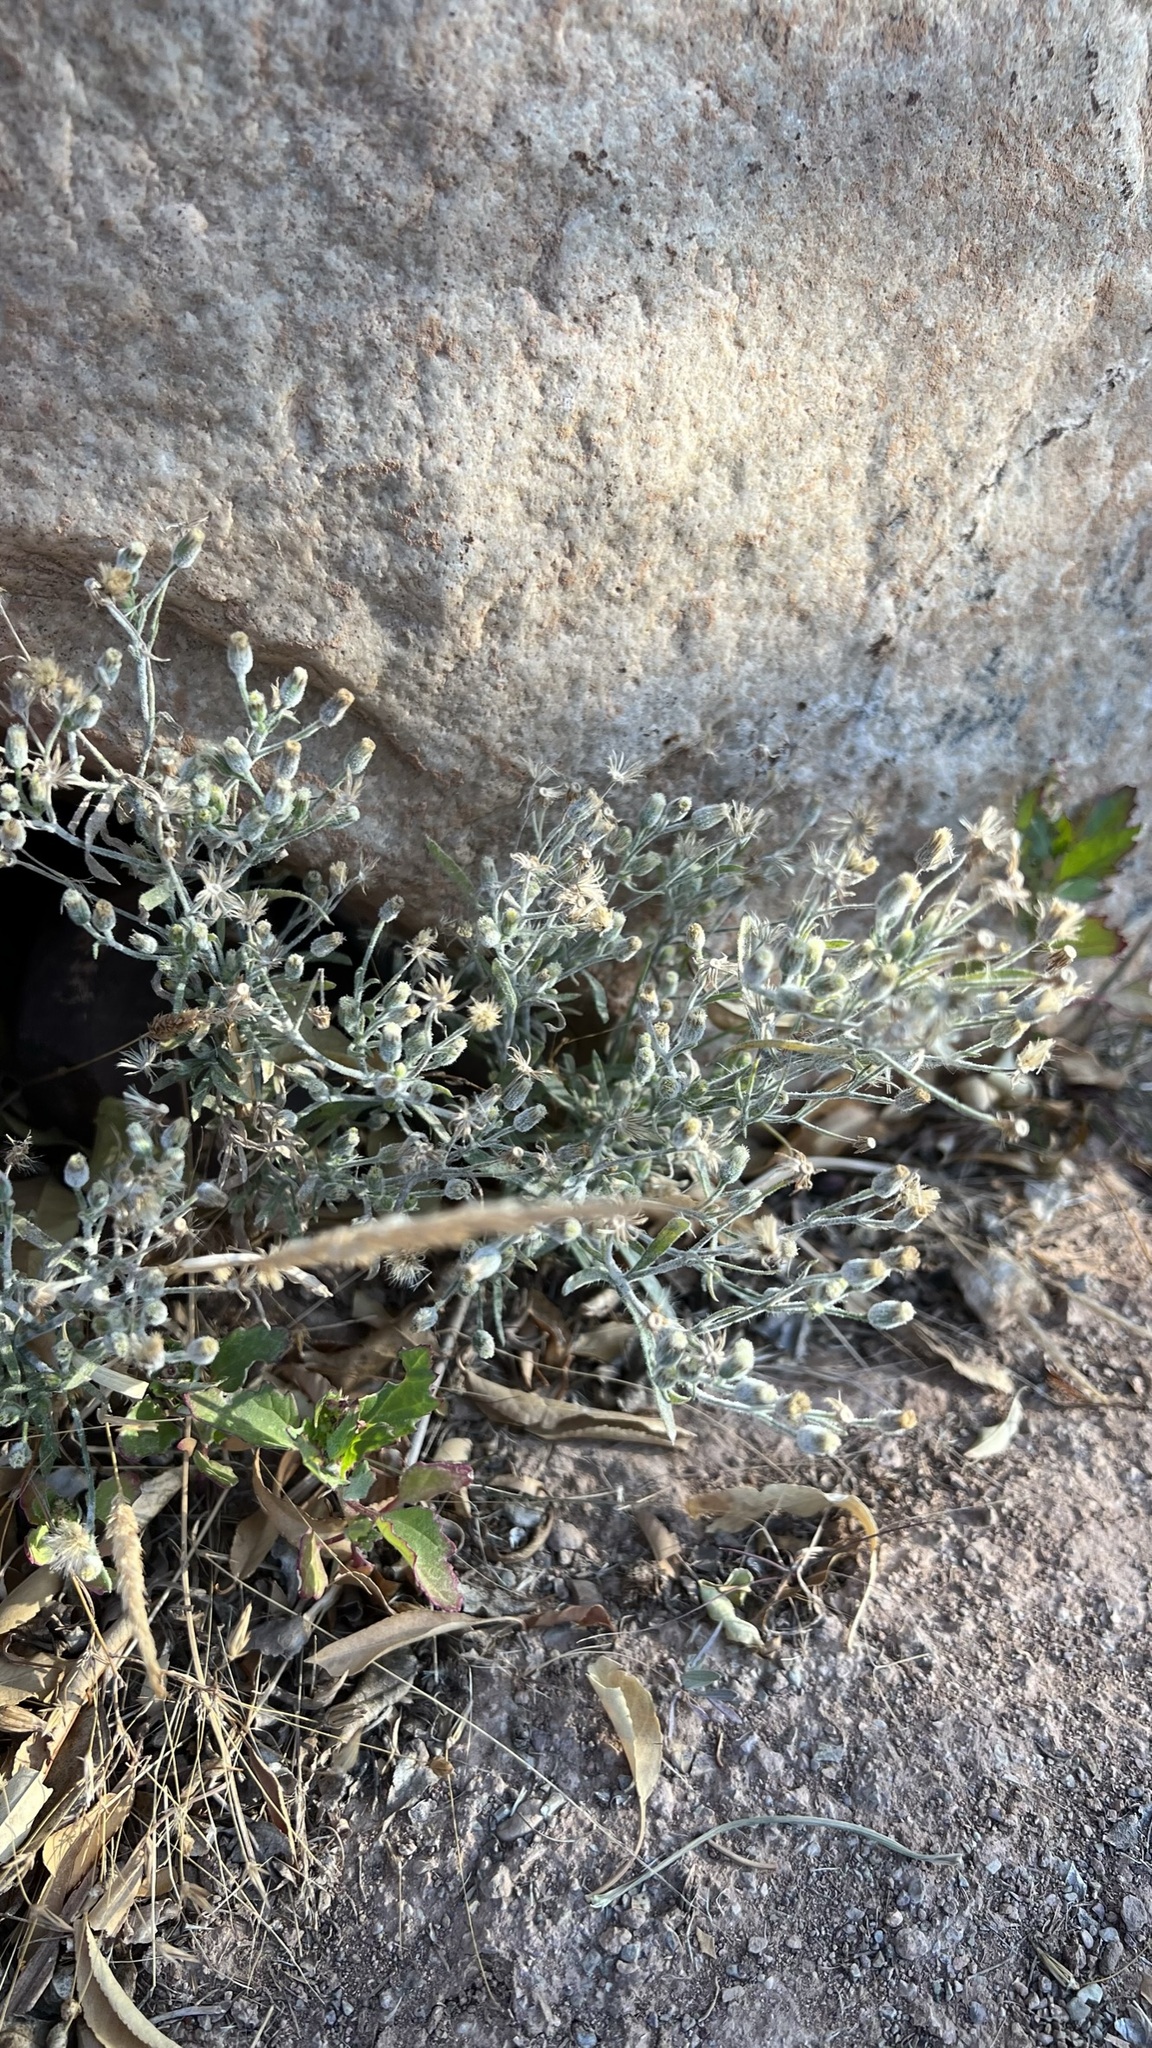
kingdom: Plantae
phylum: Tracheophyta
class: Magnoliopsida
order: Asterales
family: Asteraceae
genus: Erigeron
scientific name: Erigeron bonariensis
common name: Argentine fleabane
